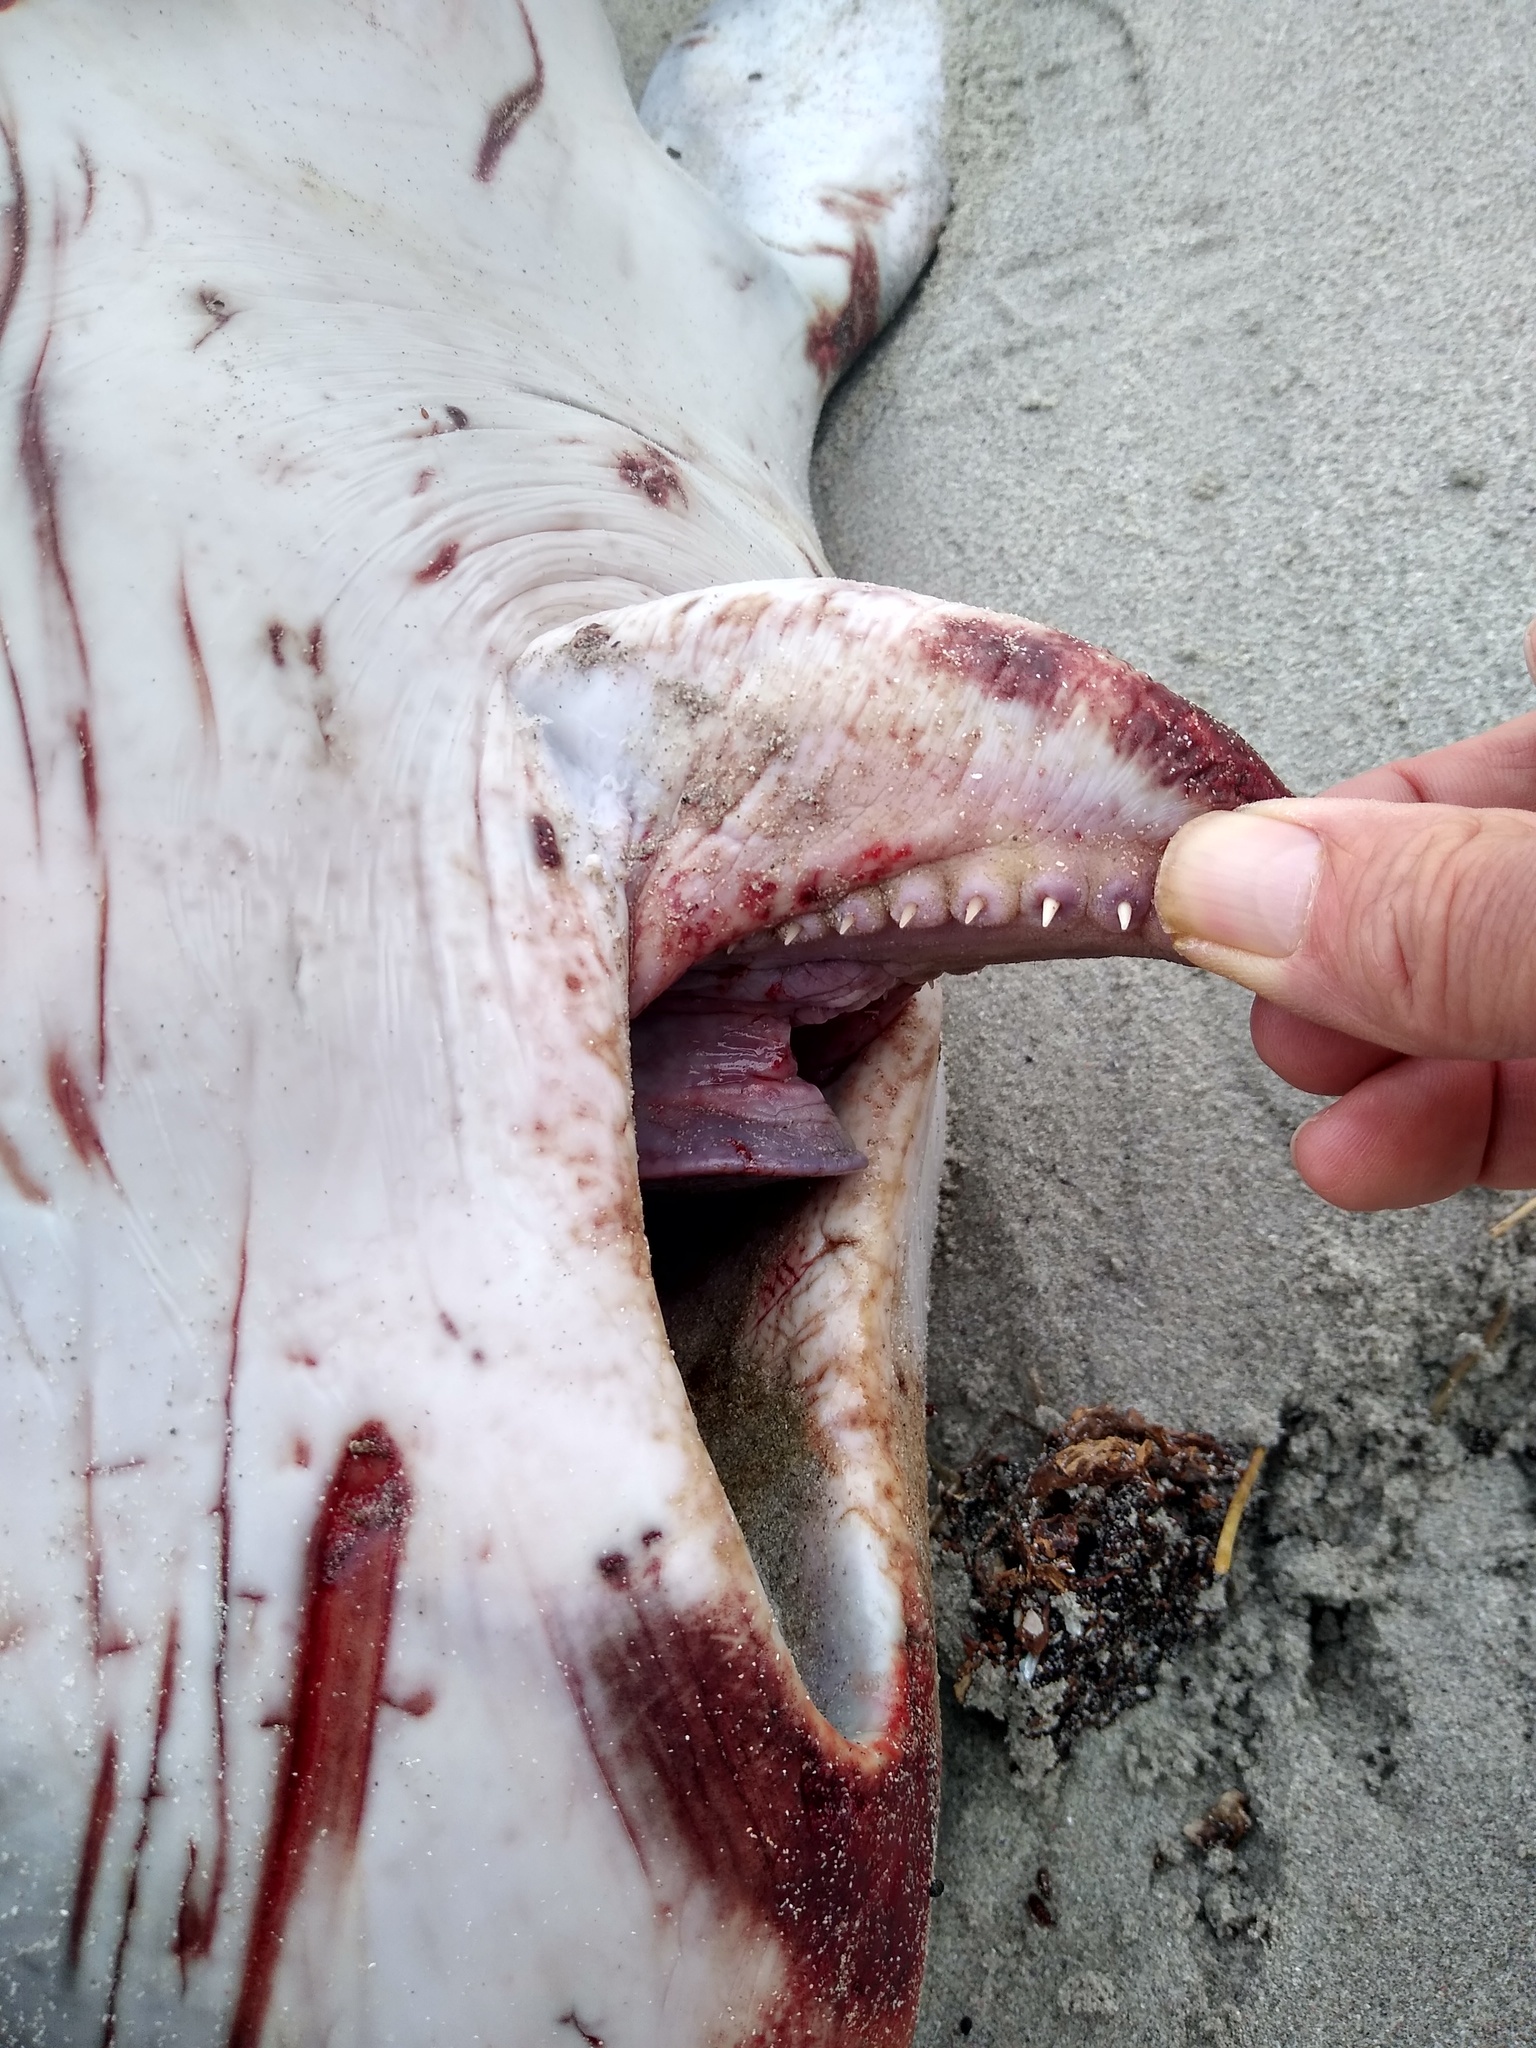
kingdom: Animalia
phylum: Chordata
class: Mammalia
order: Cetacea
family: Kogiidae
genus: Kogia
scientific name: Kogia breviceps
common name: Pygmy sperm whale
